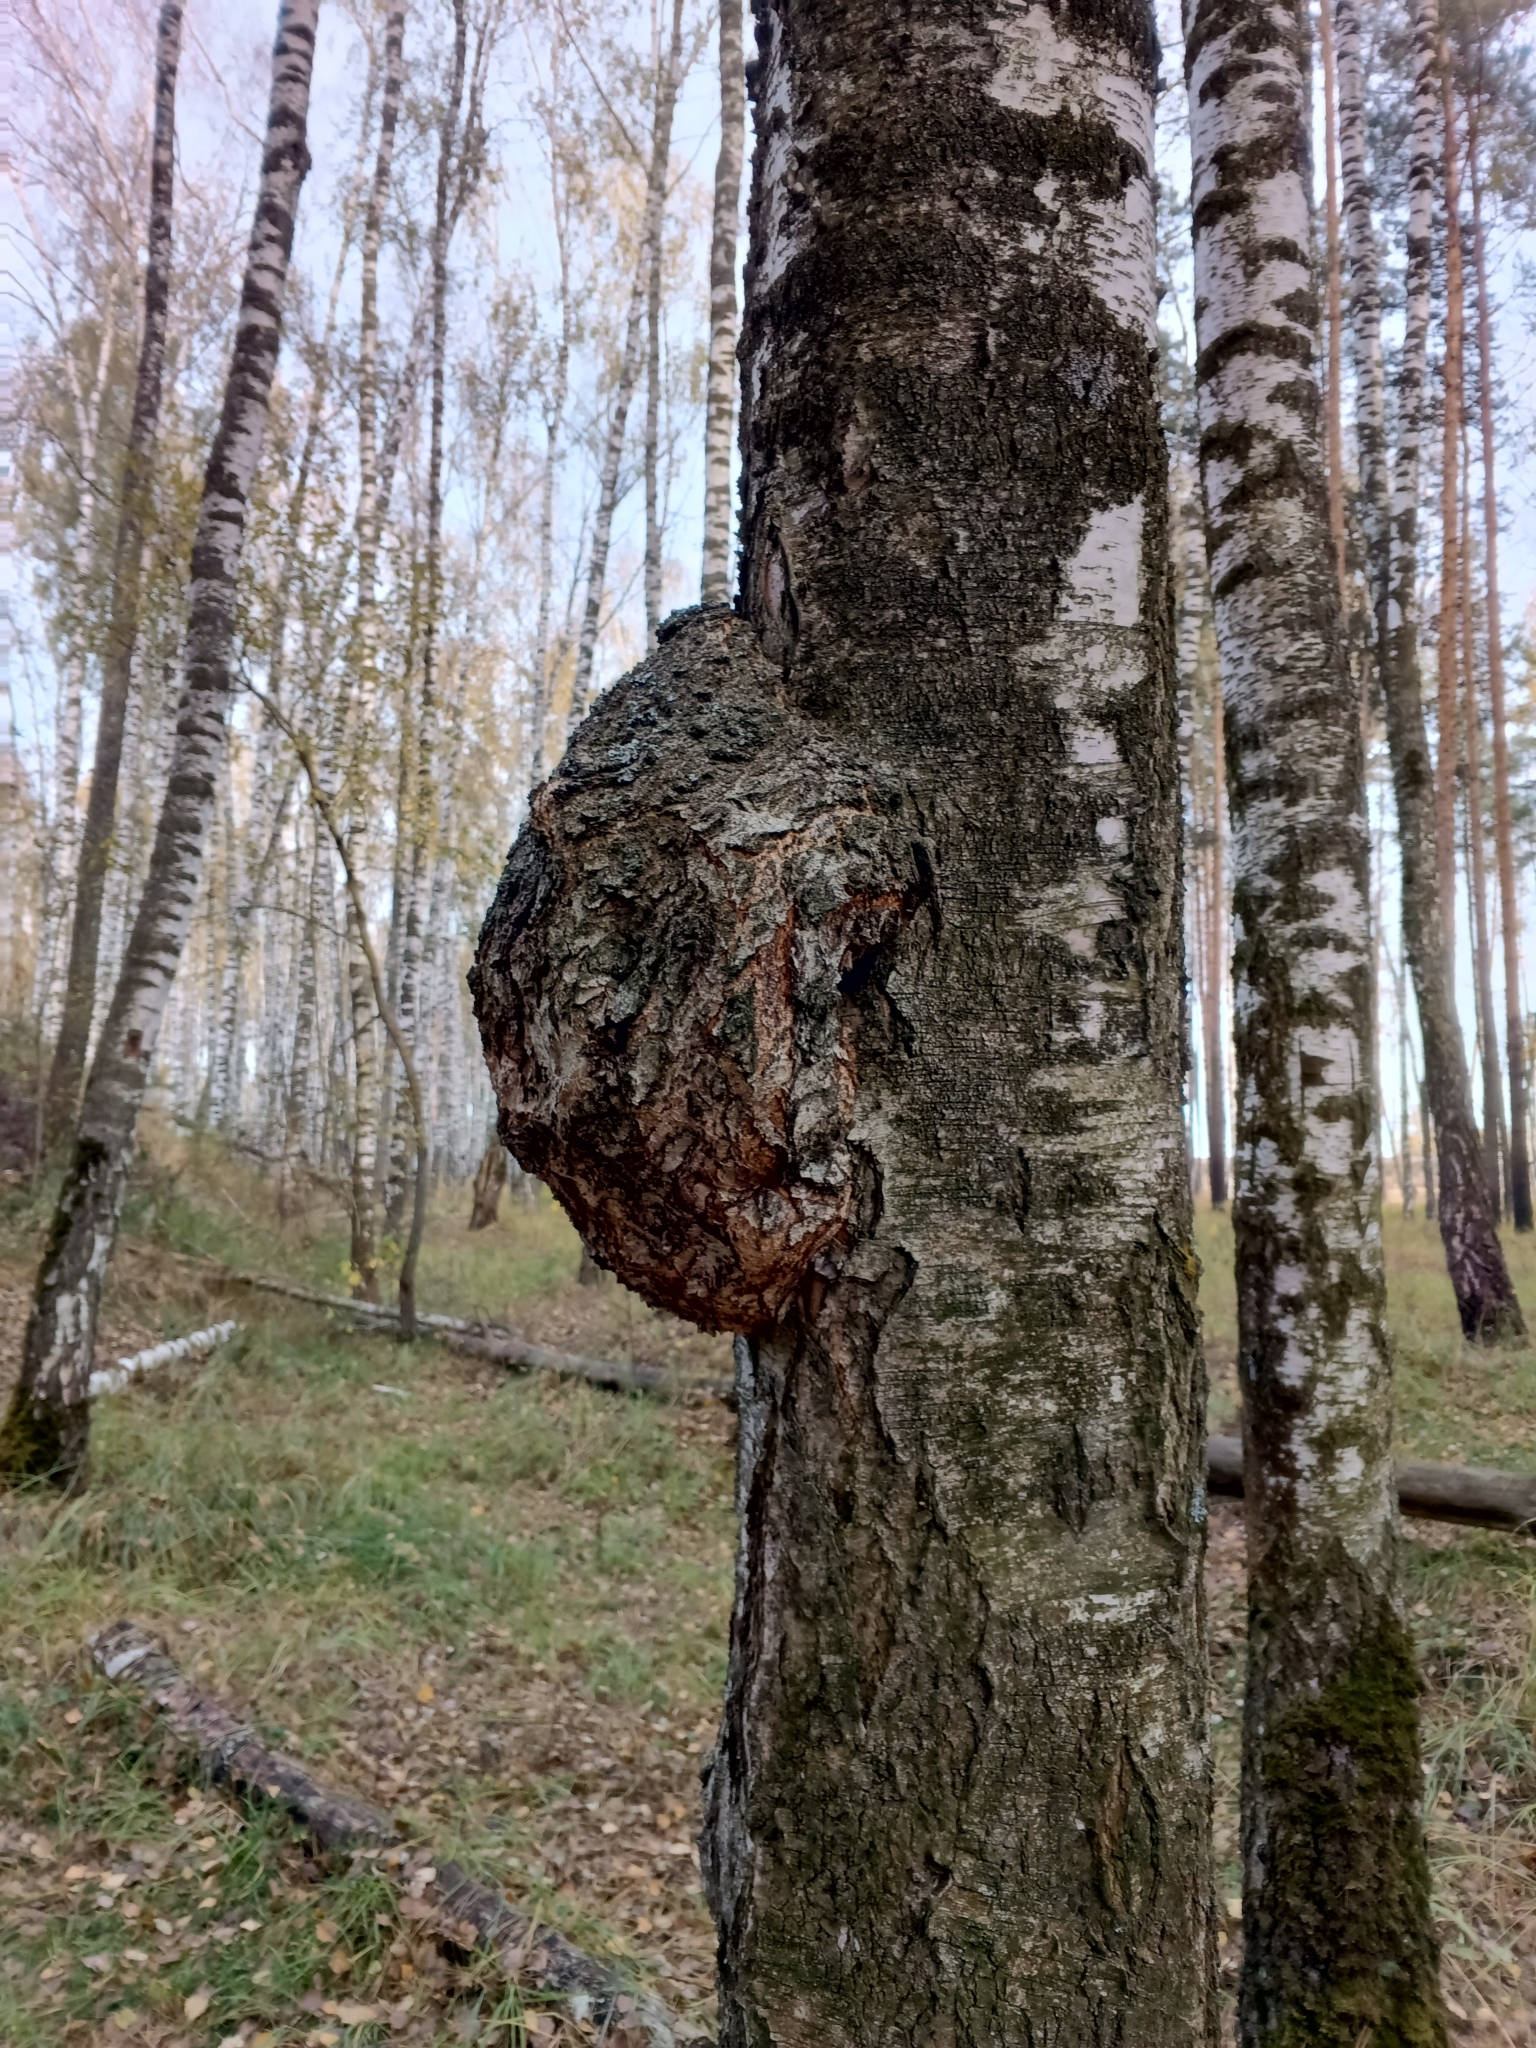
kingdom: Bacteria
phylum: Proteobacteria
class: Alphaproteobacteria
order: Rhizobiales
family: Rhizobiaceae
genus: Rhizobium
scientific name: Rhizobium Agrobacterium radiobacter
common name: Bacterial crown gall
